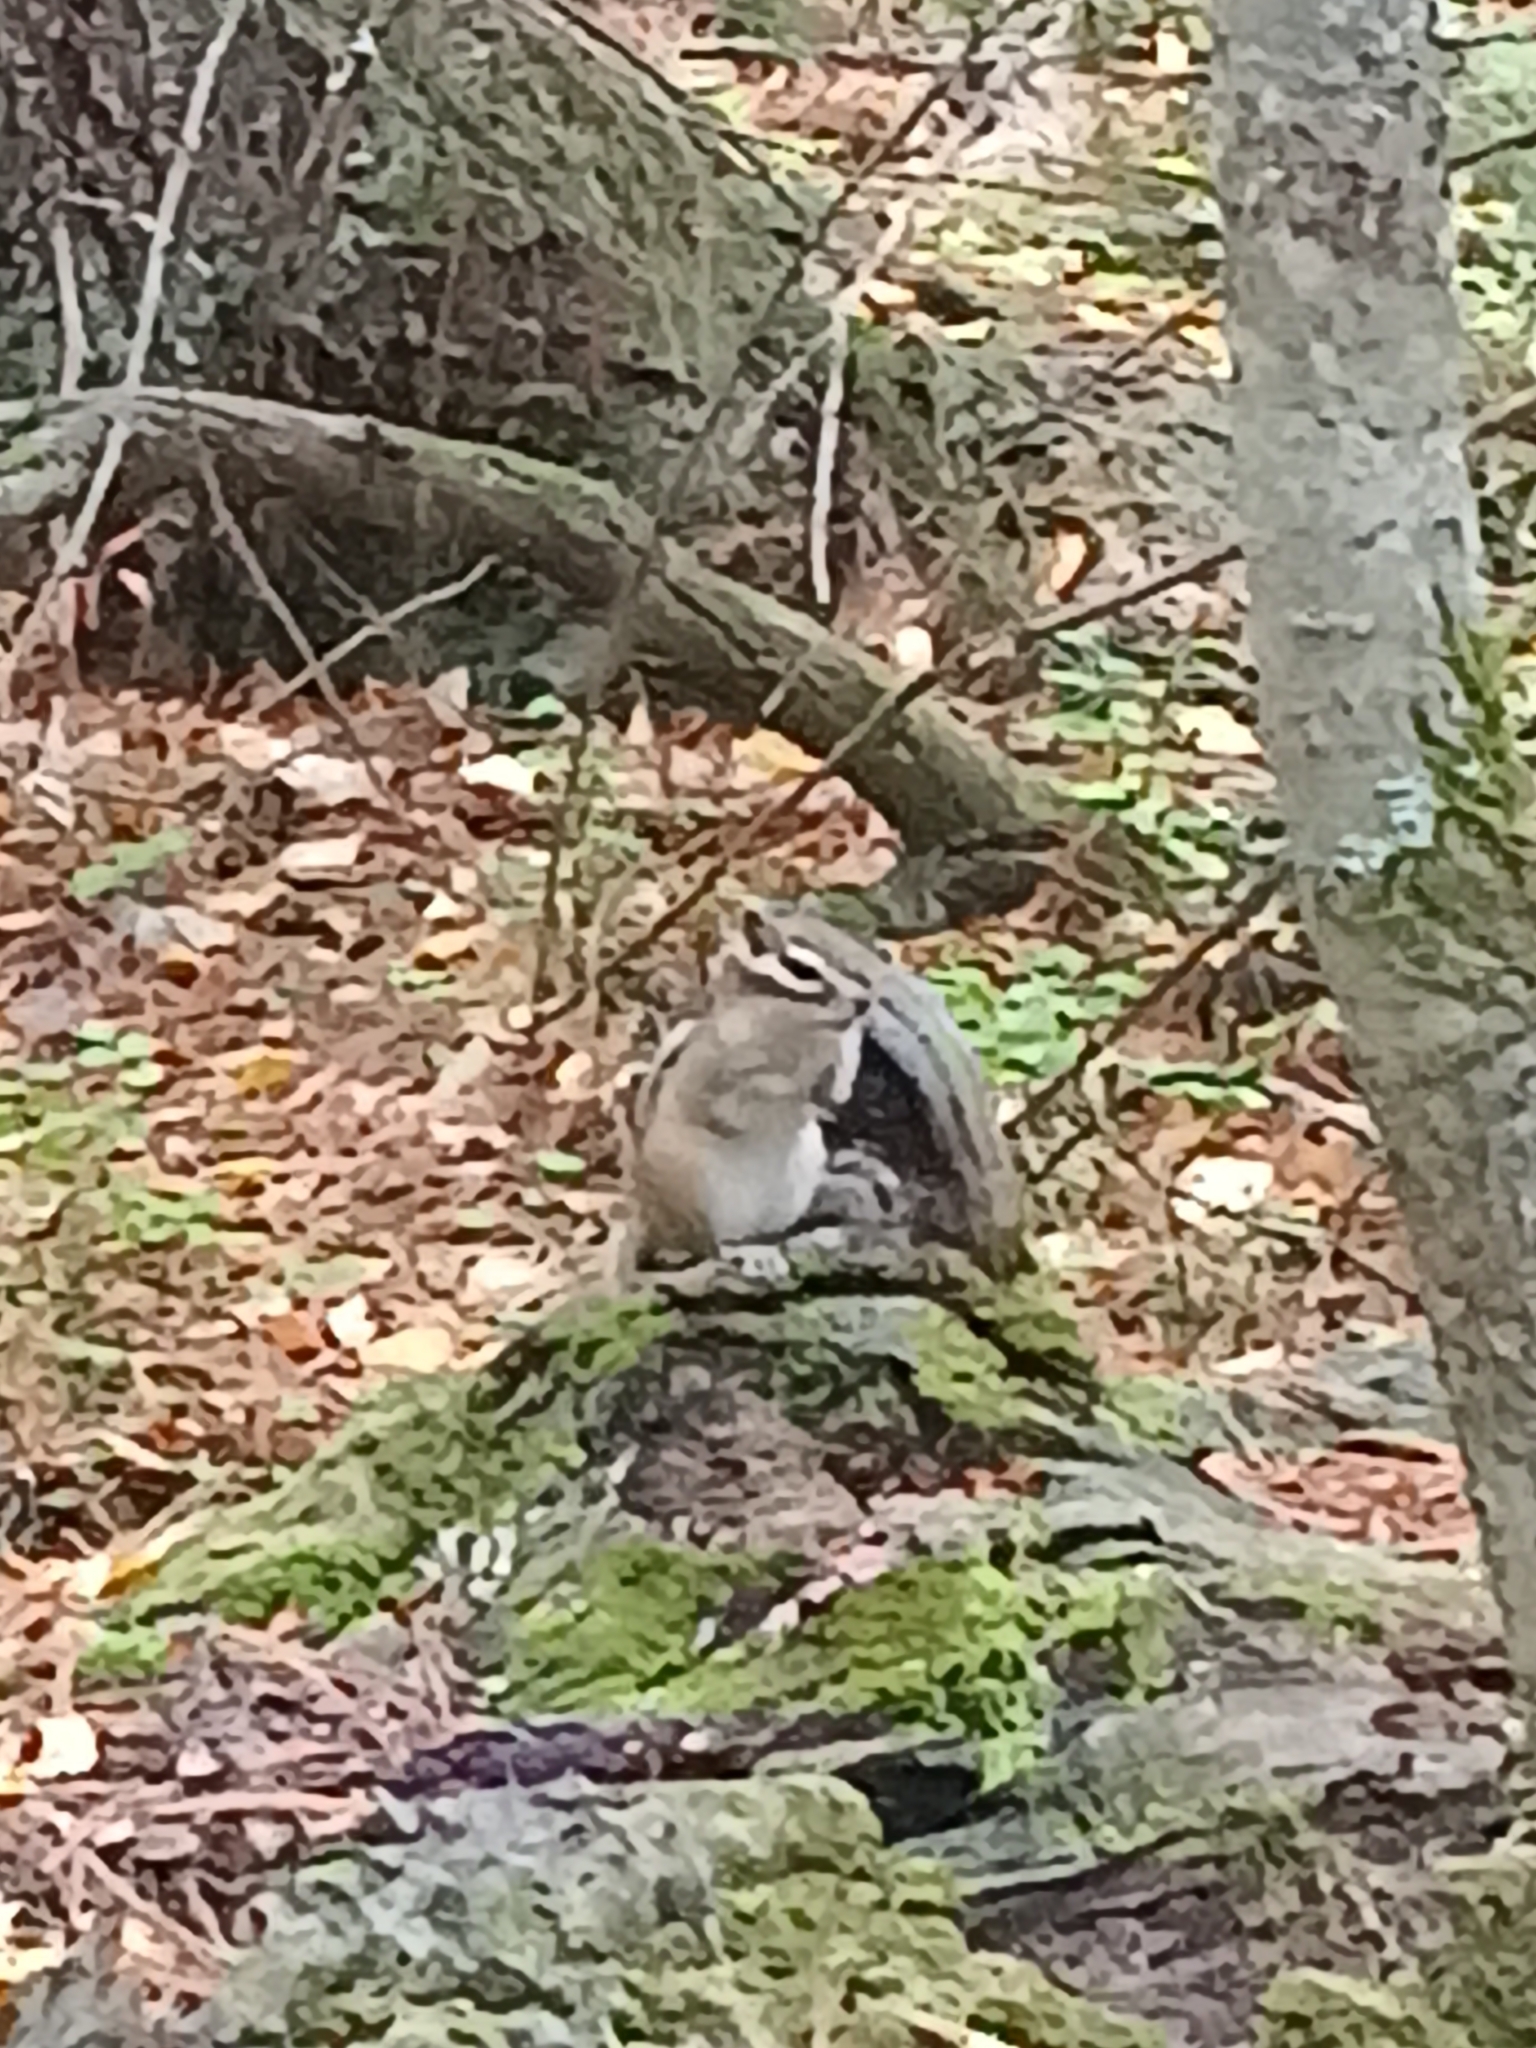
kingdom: Animalia
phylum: Chordata
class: Mammalia
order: Rodentia
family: Sciuridae
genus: Tamias
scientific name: Tamias sibiricus
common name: Siberian chipmunk
